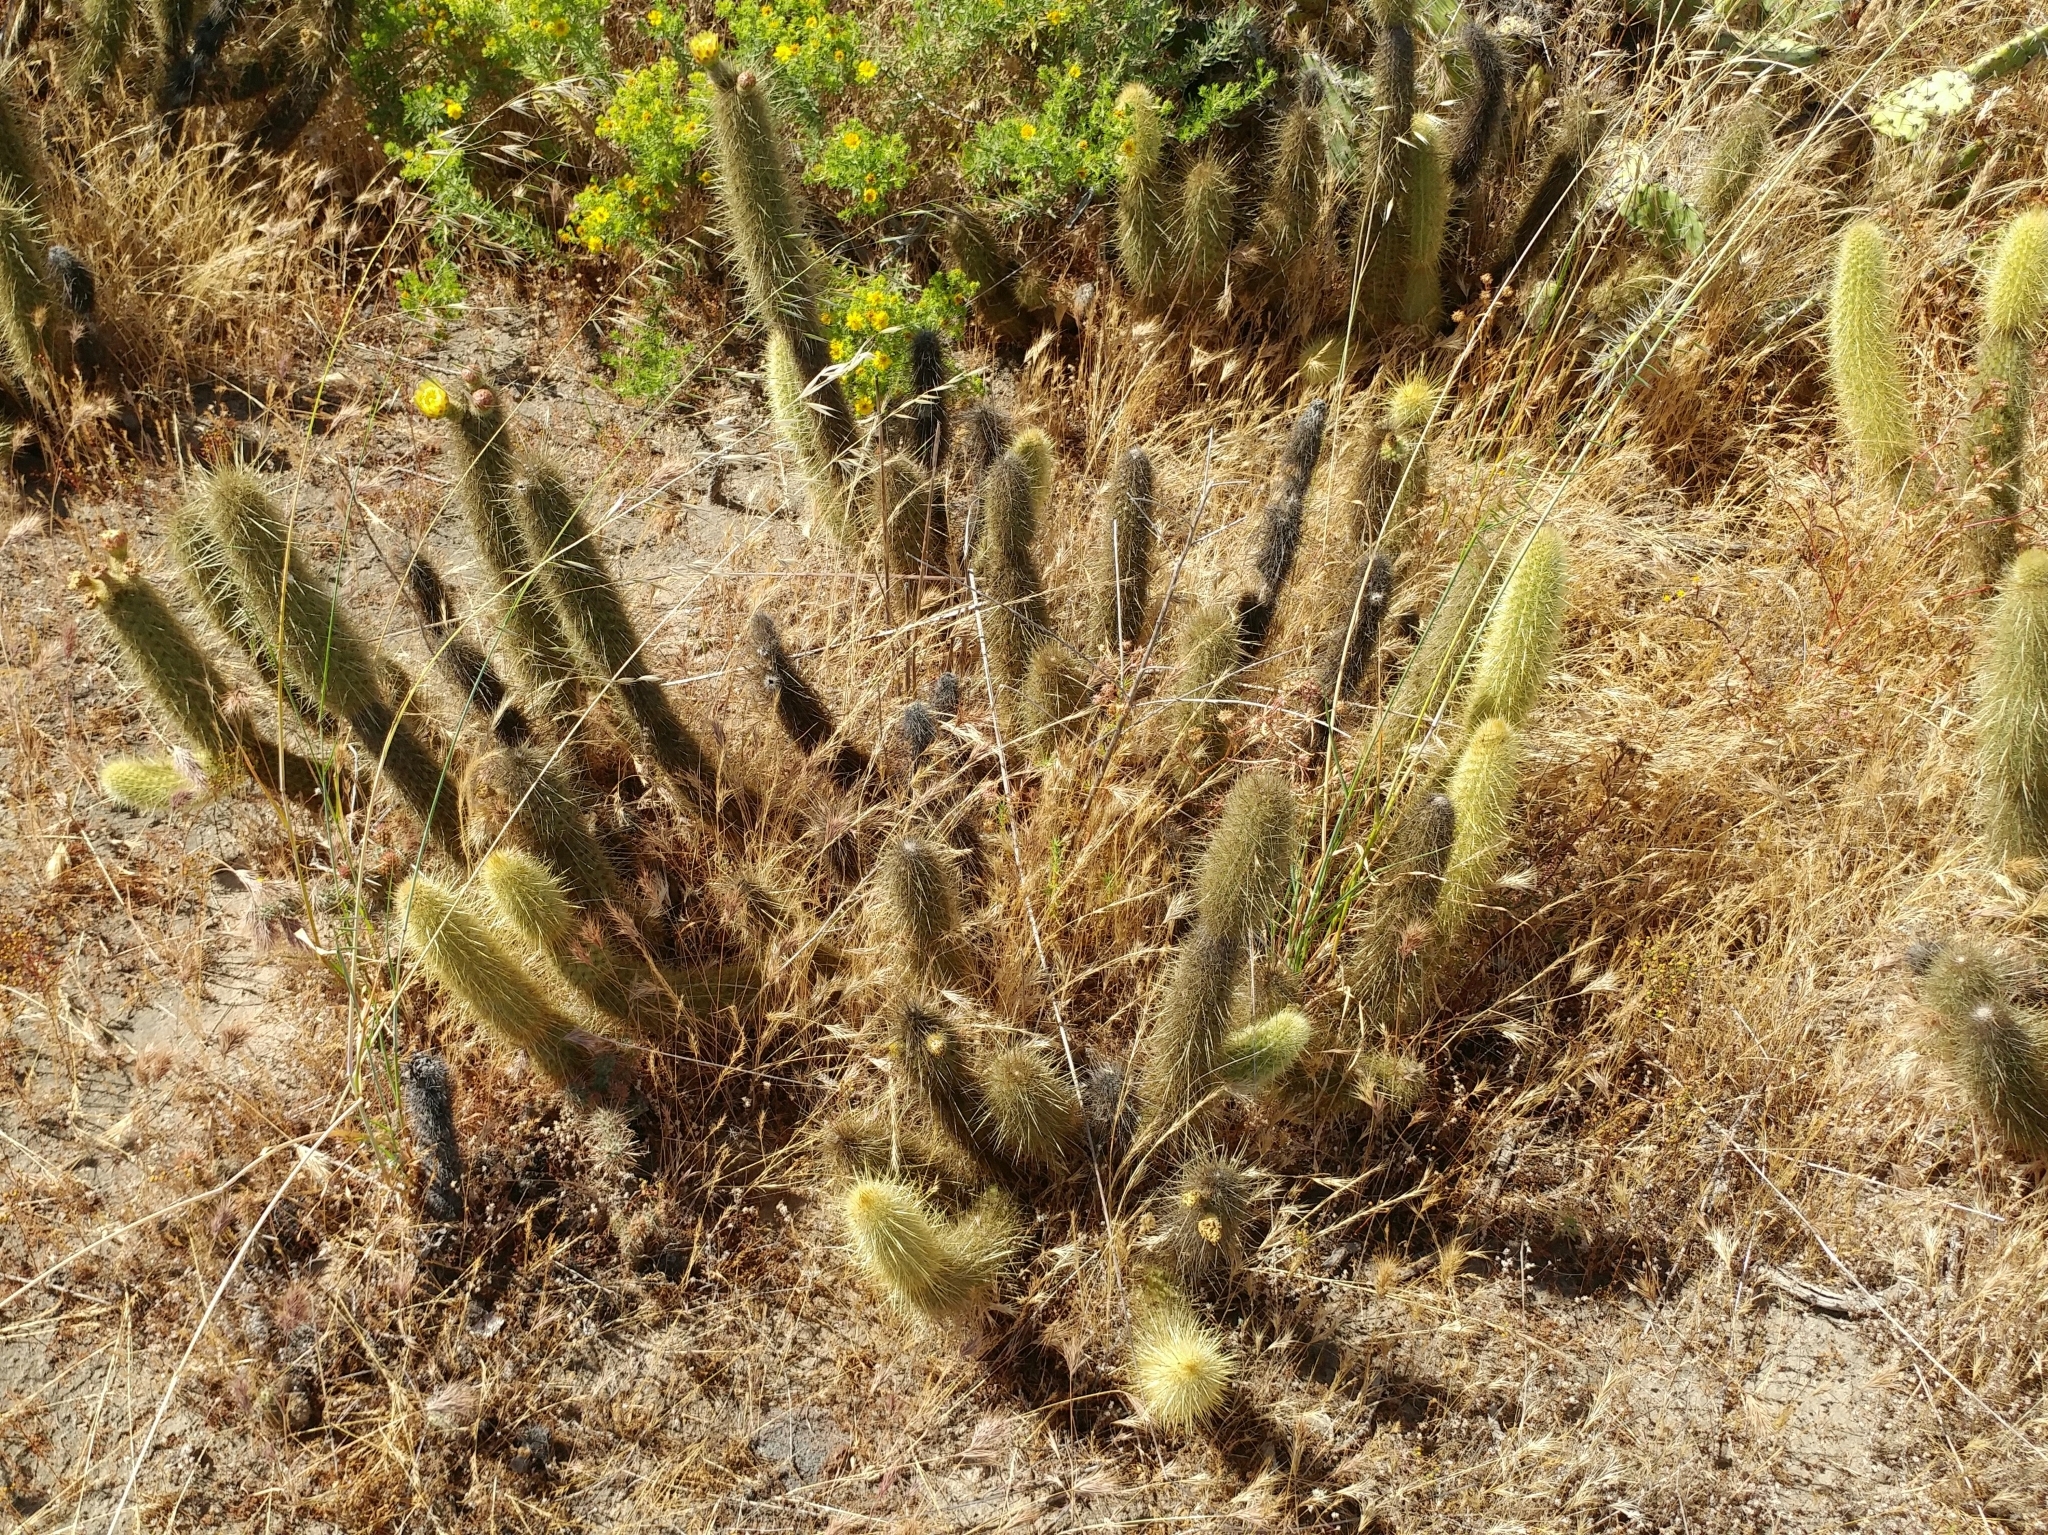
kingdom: Plantae
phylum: Tracheophyta
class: Magnoliopsida
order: Caryophyllales
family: Cactaceae
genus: Bergerocactus
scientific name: Bergerocactus emoryi
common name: Golden snakecactus
